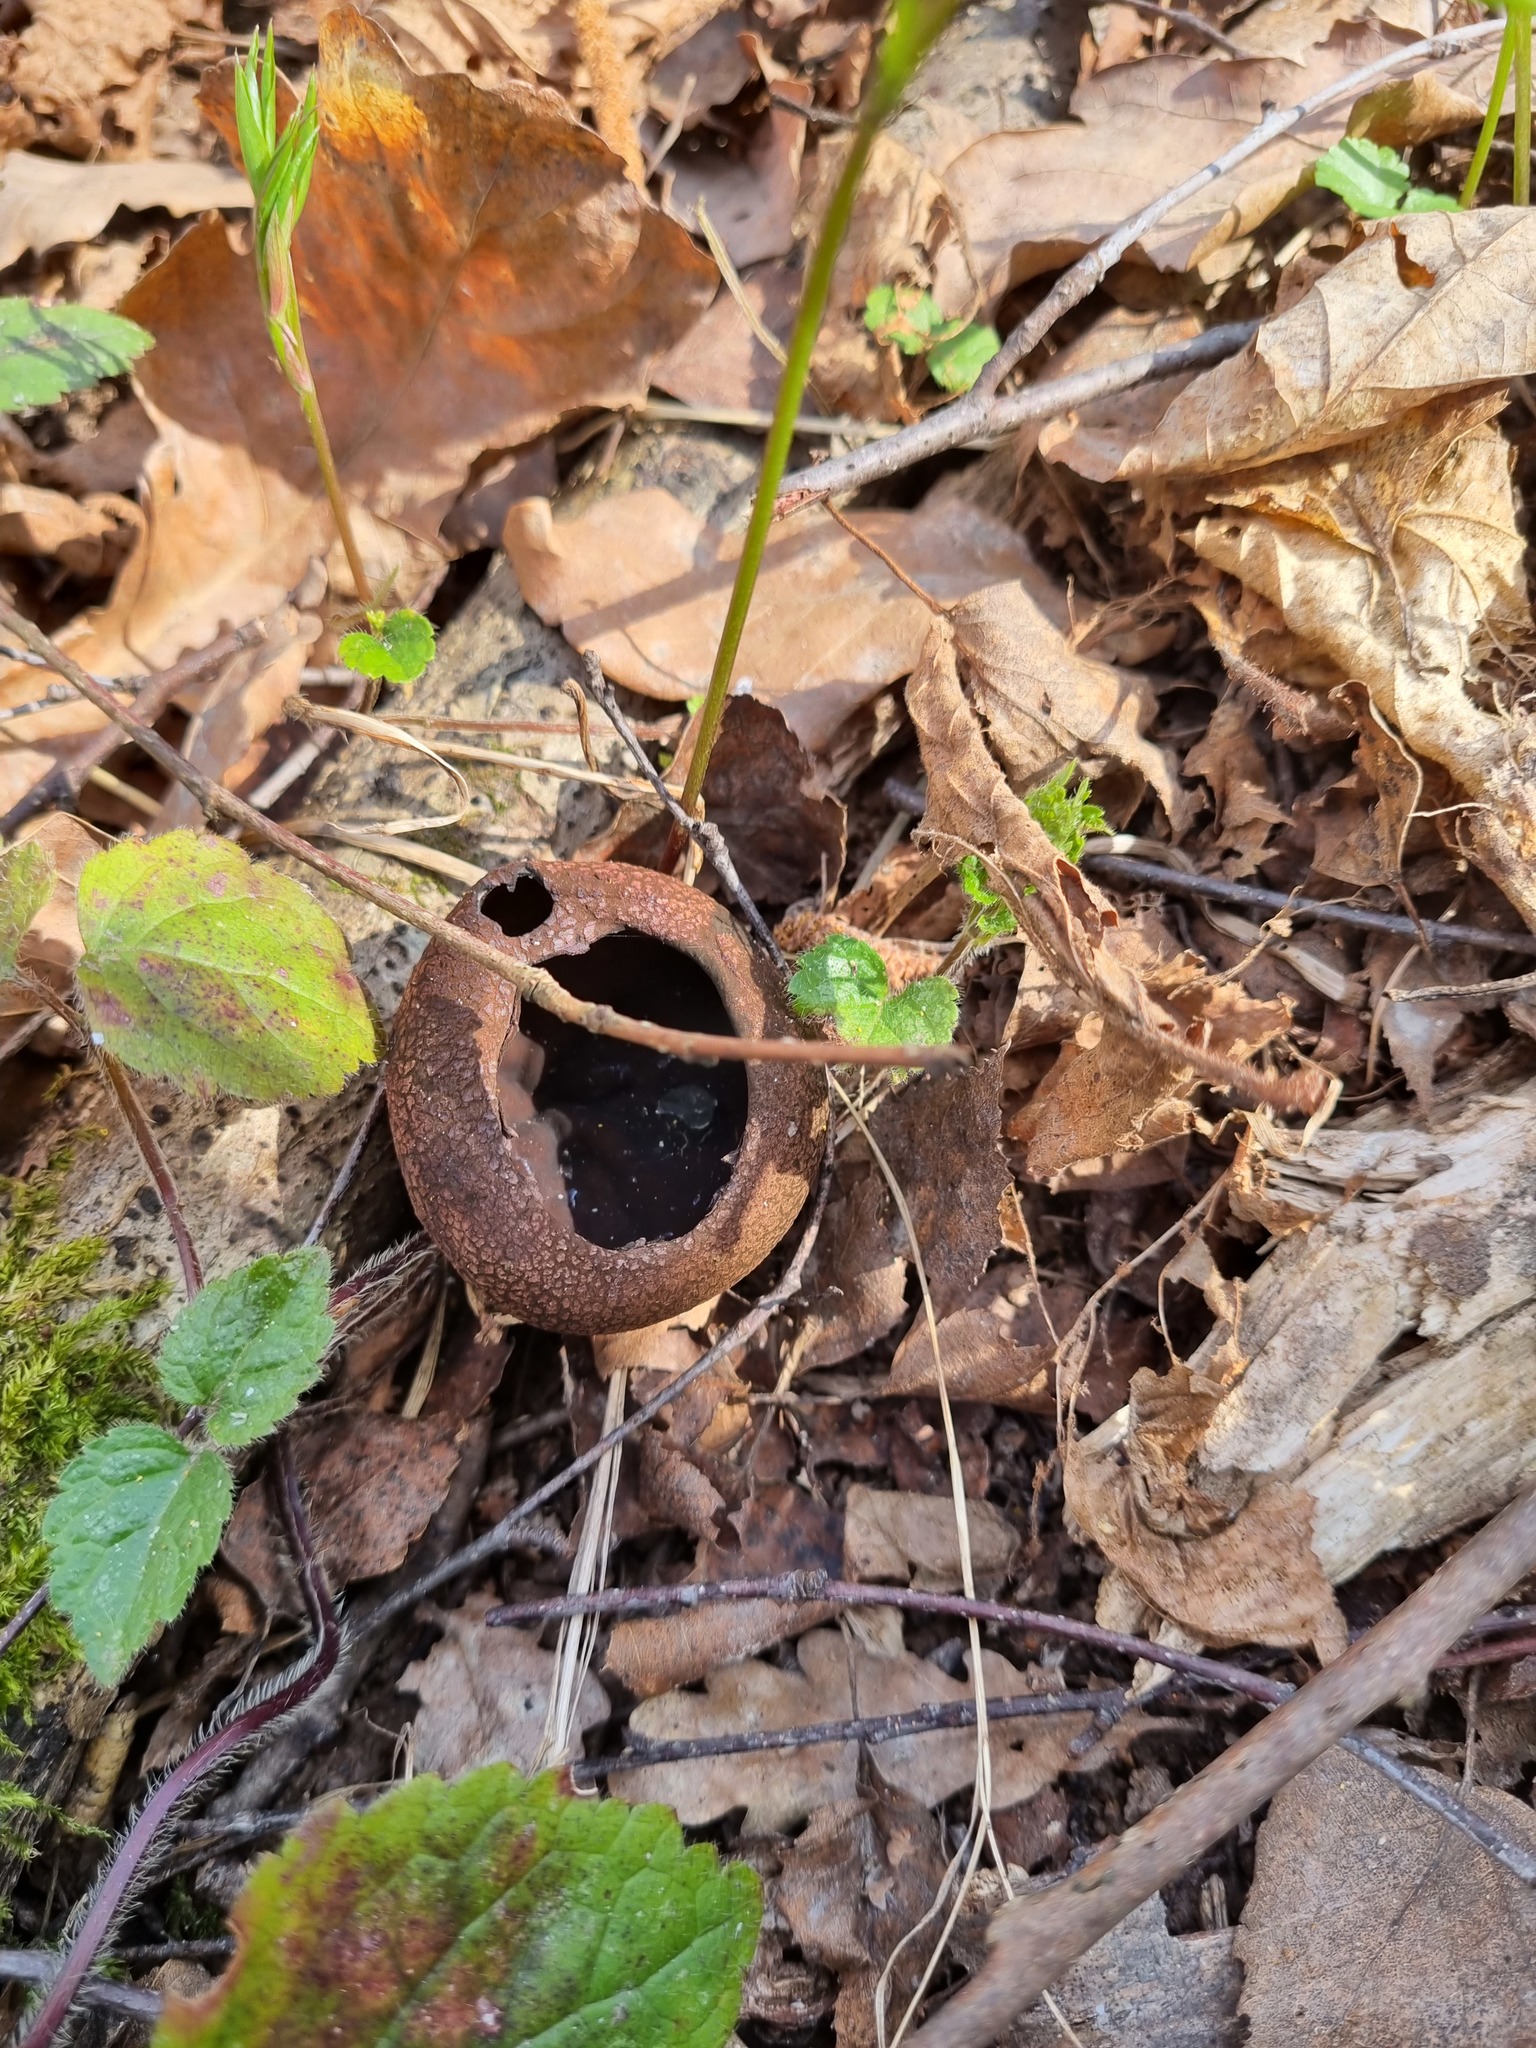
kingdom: Fungi
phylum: Ascomycota
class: Pezizomycetes
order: Pezizales
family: Sarcosomataceae
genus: Urnula
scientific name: Urnula craterium
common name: Devil's urn
